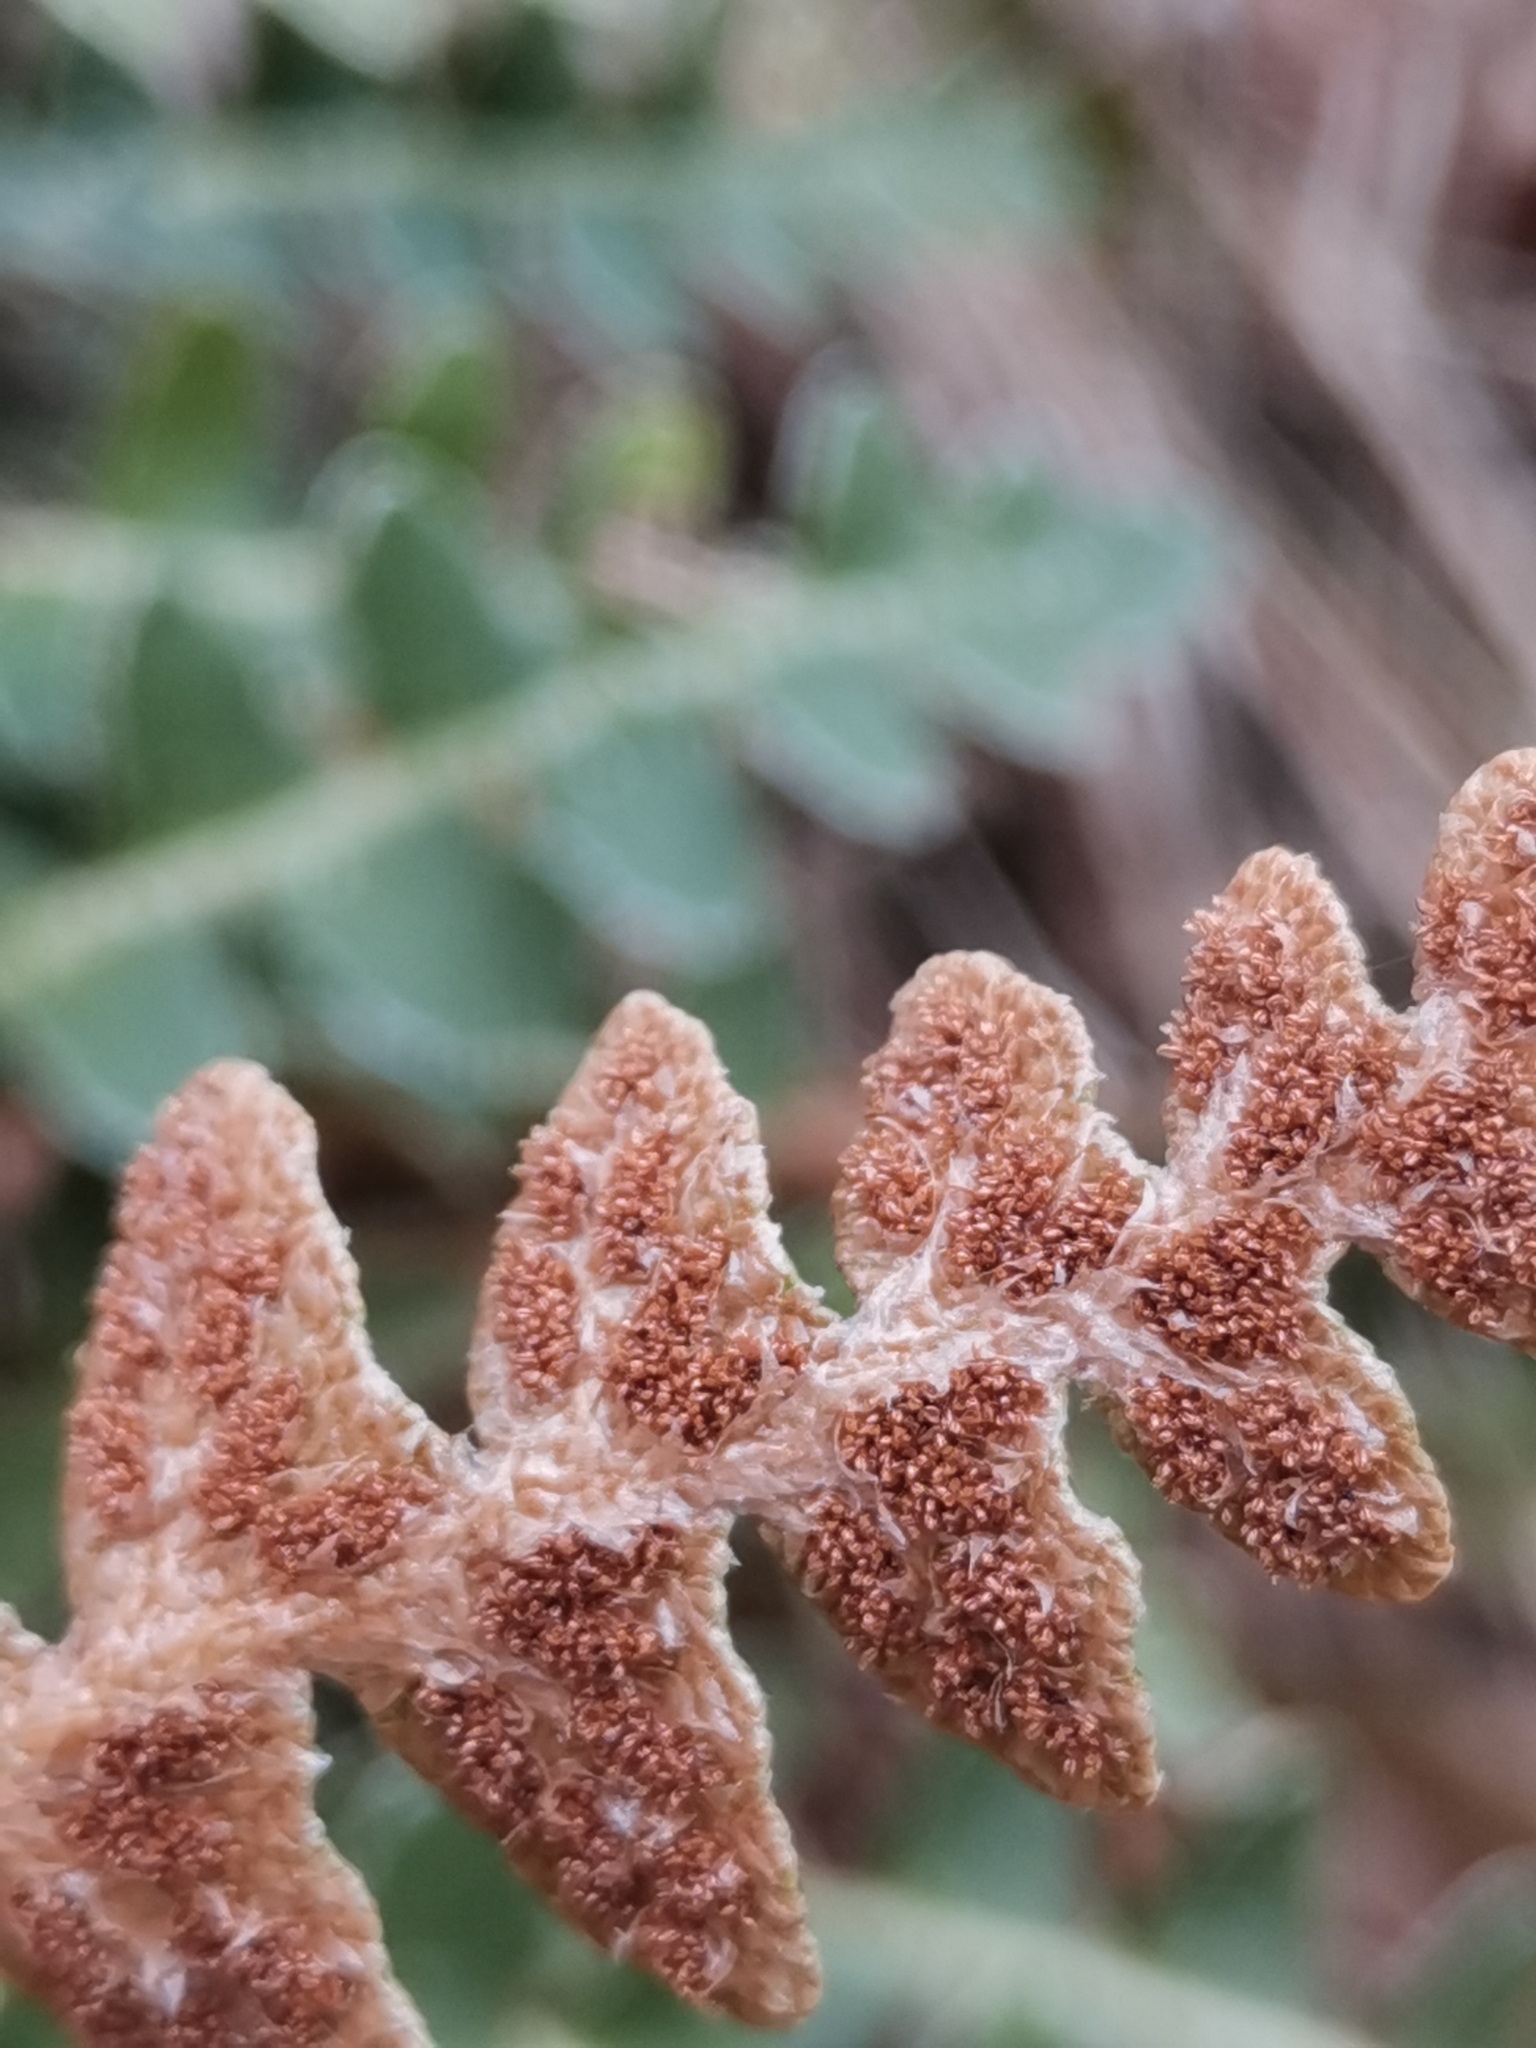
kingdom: Plantae
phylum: Tracheophyta
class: Polypodiopsida
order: Polypodiales
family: Aspleniaceae
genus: Asplenium
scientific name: Asplenium ceterach
